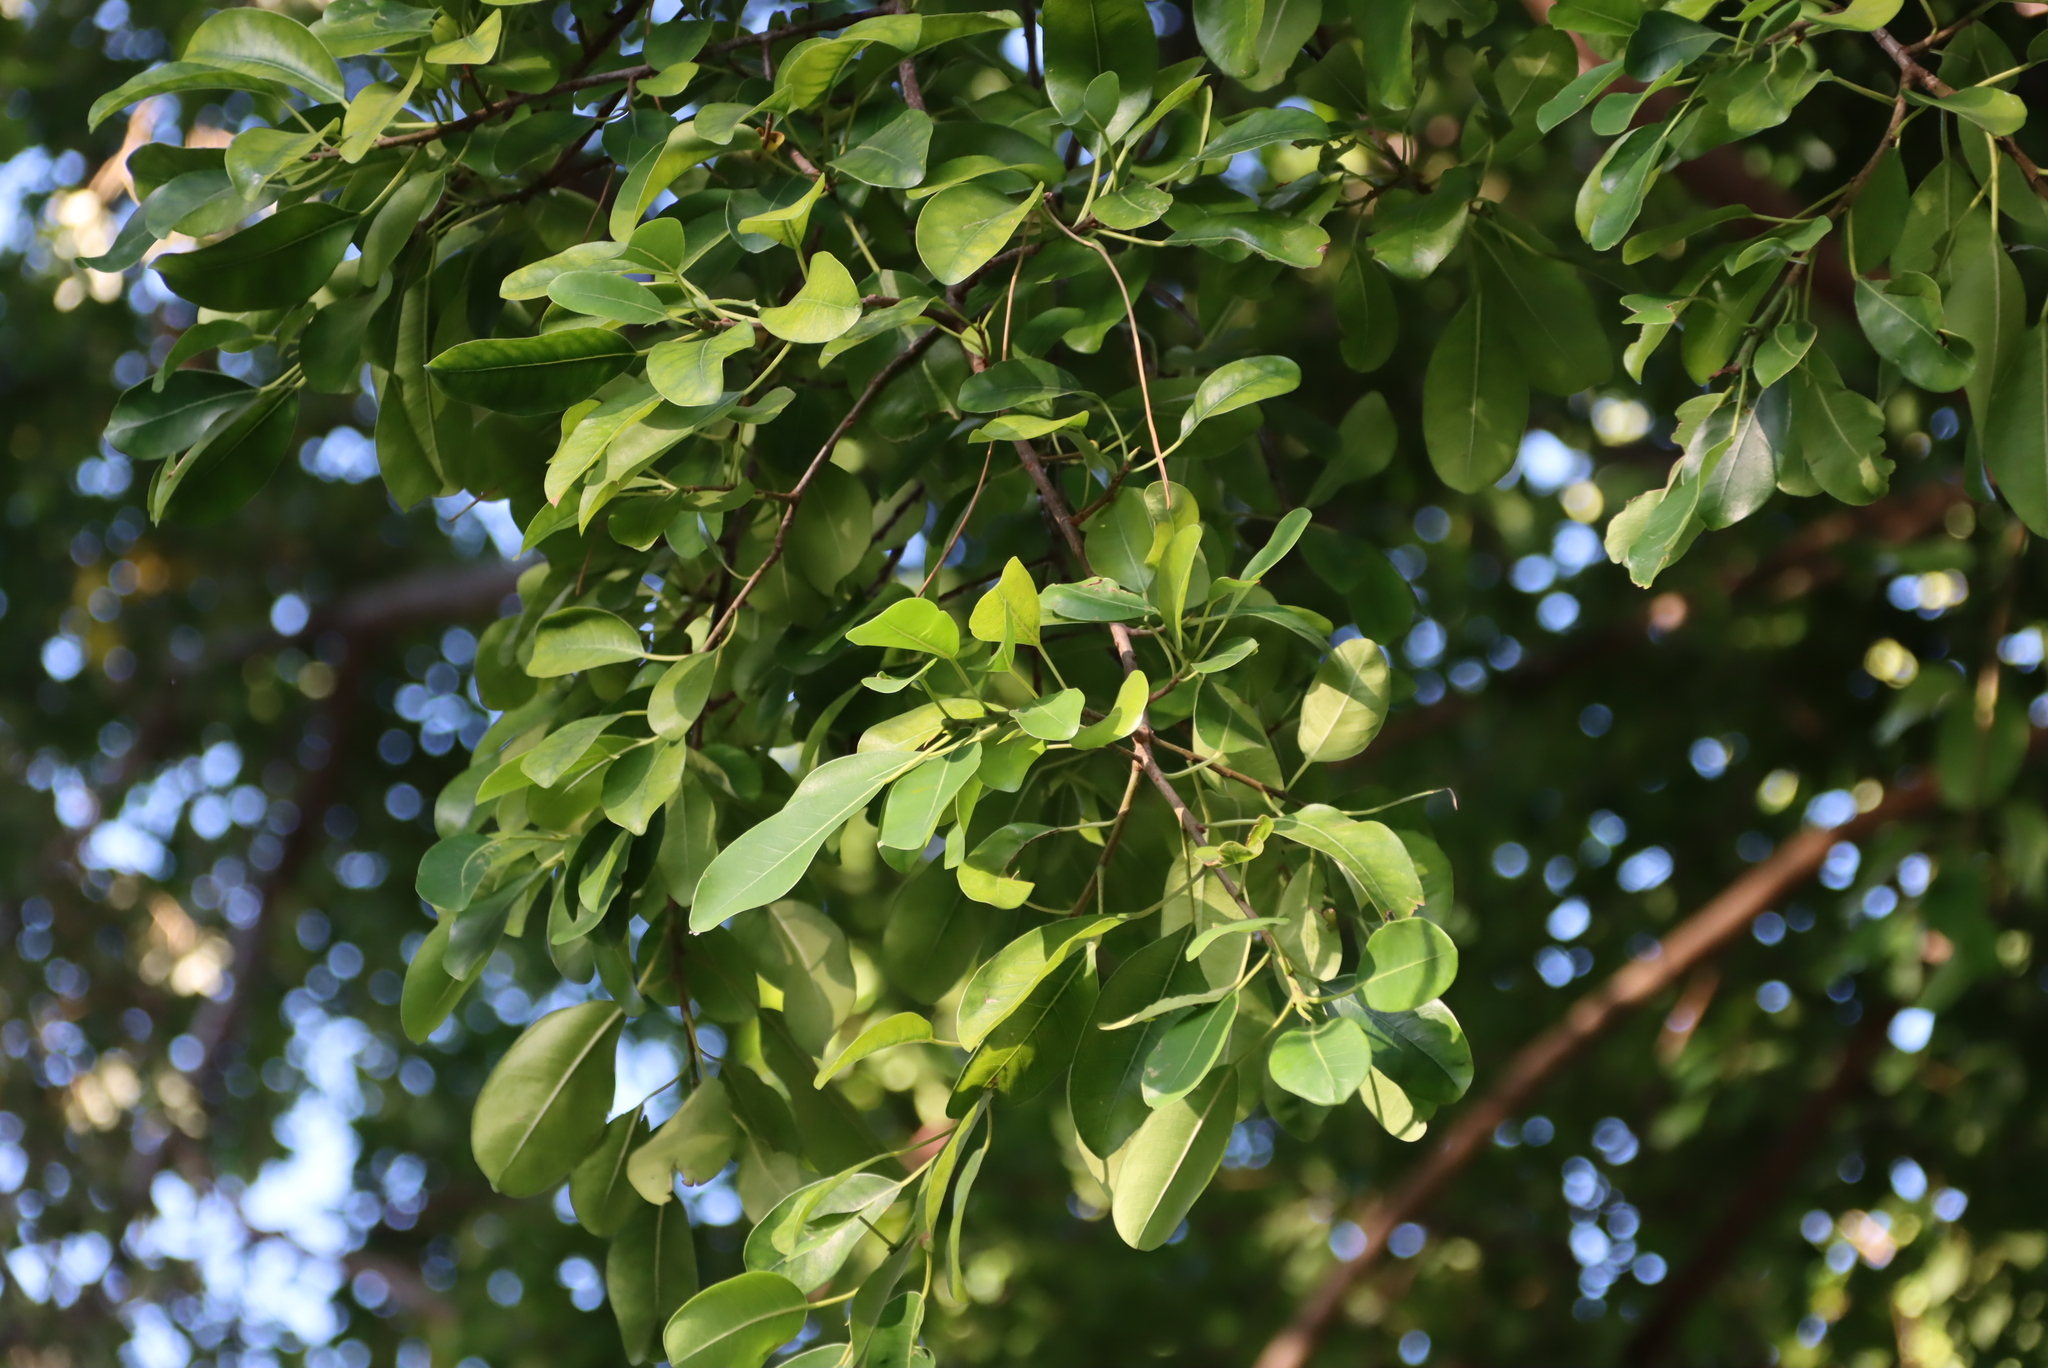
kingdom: Plantae
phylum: Tracheophyta
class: Magnoliopsida
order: Rosales
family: Moraceae
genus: Ficus
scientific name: Ficus thonningii
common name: Fig
